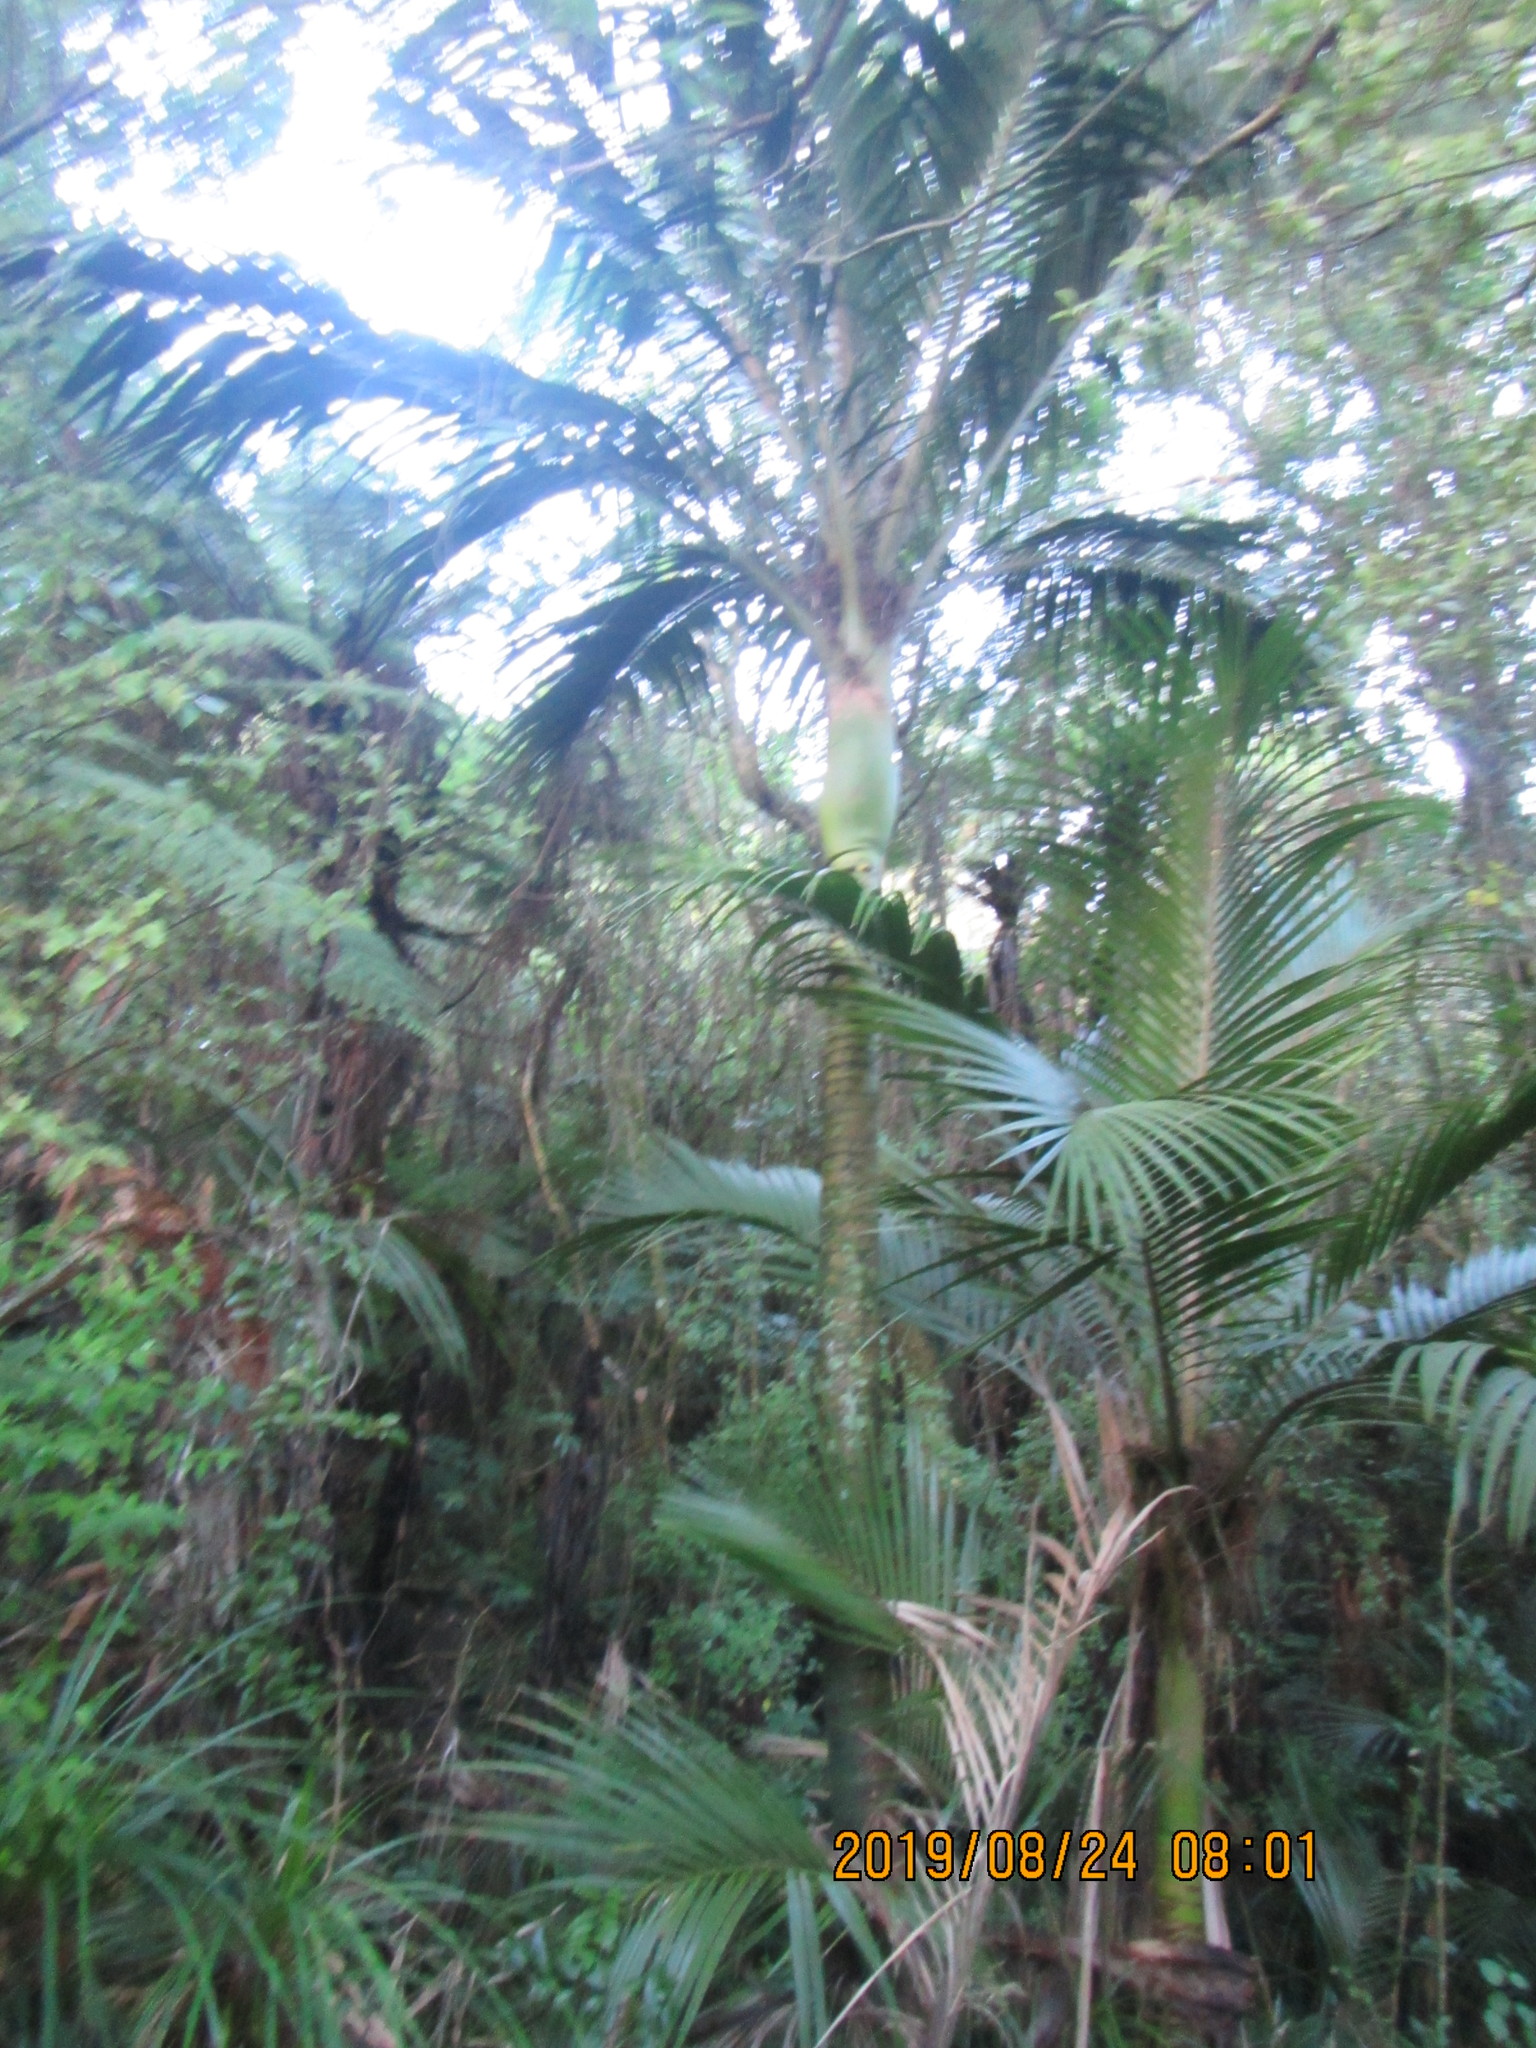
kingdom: Plantae
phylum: Tracheophyta
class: Liliopsida
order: Arecales
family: Arecaceae
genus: Rhopalostylis
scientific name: Rhopalostylis sapida
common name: Feather-duster palm
